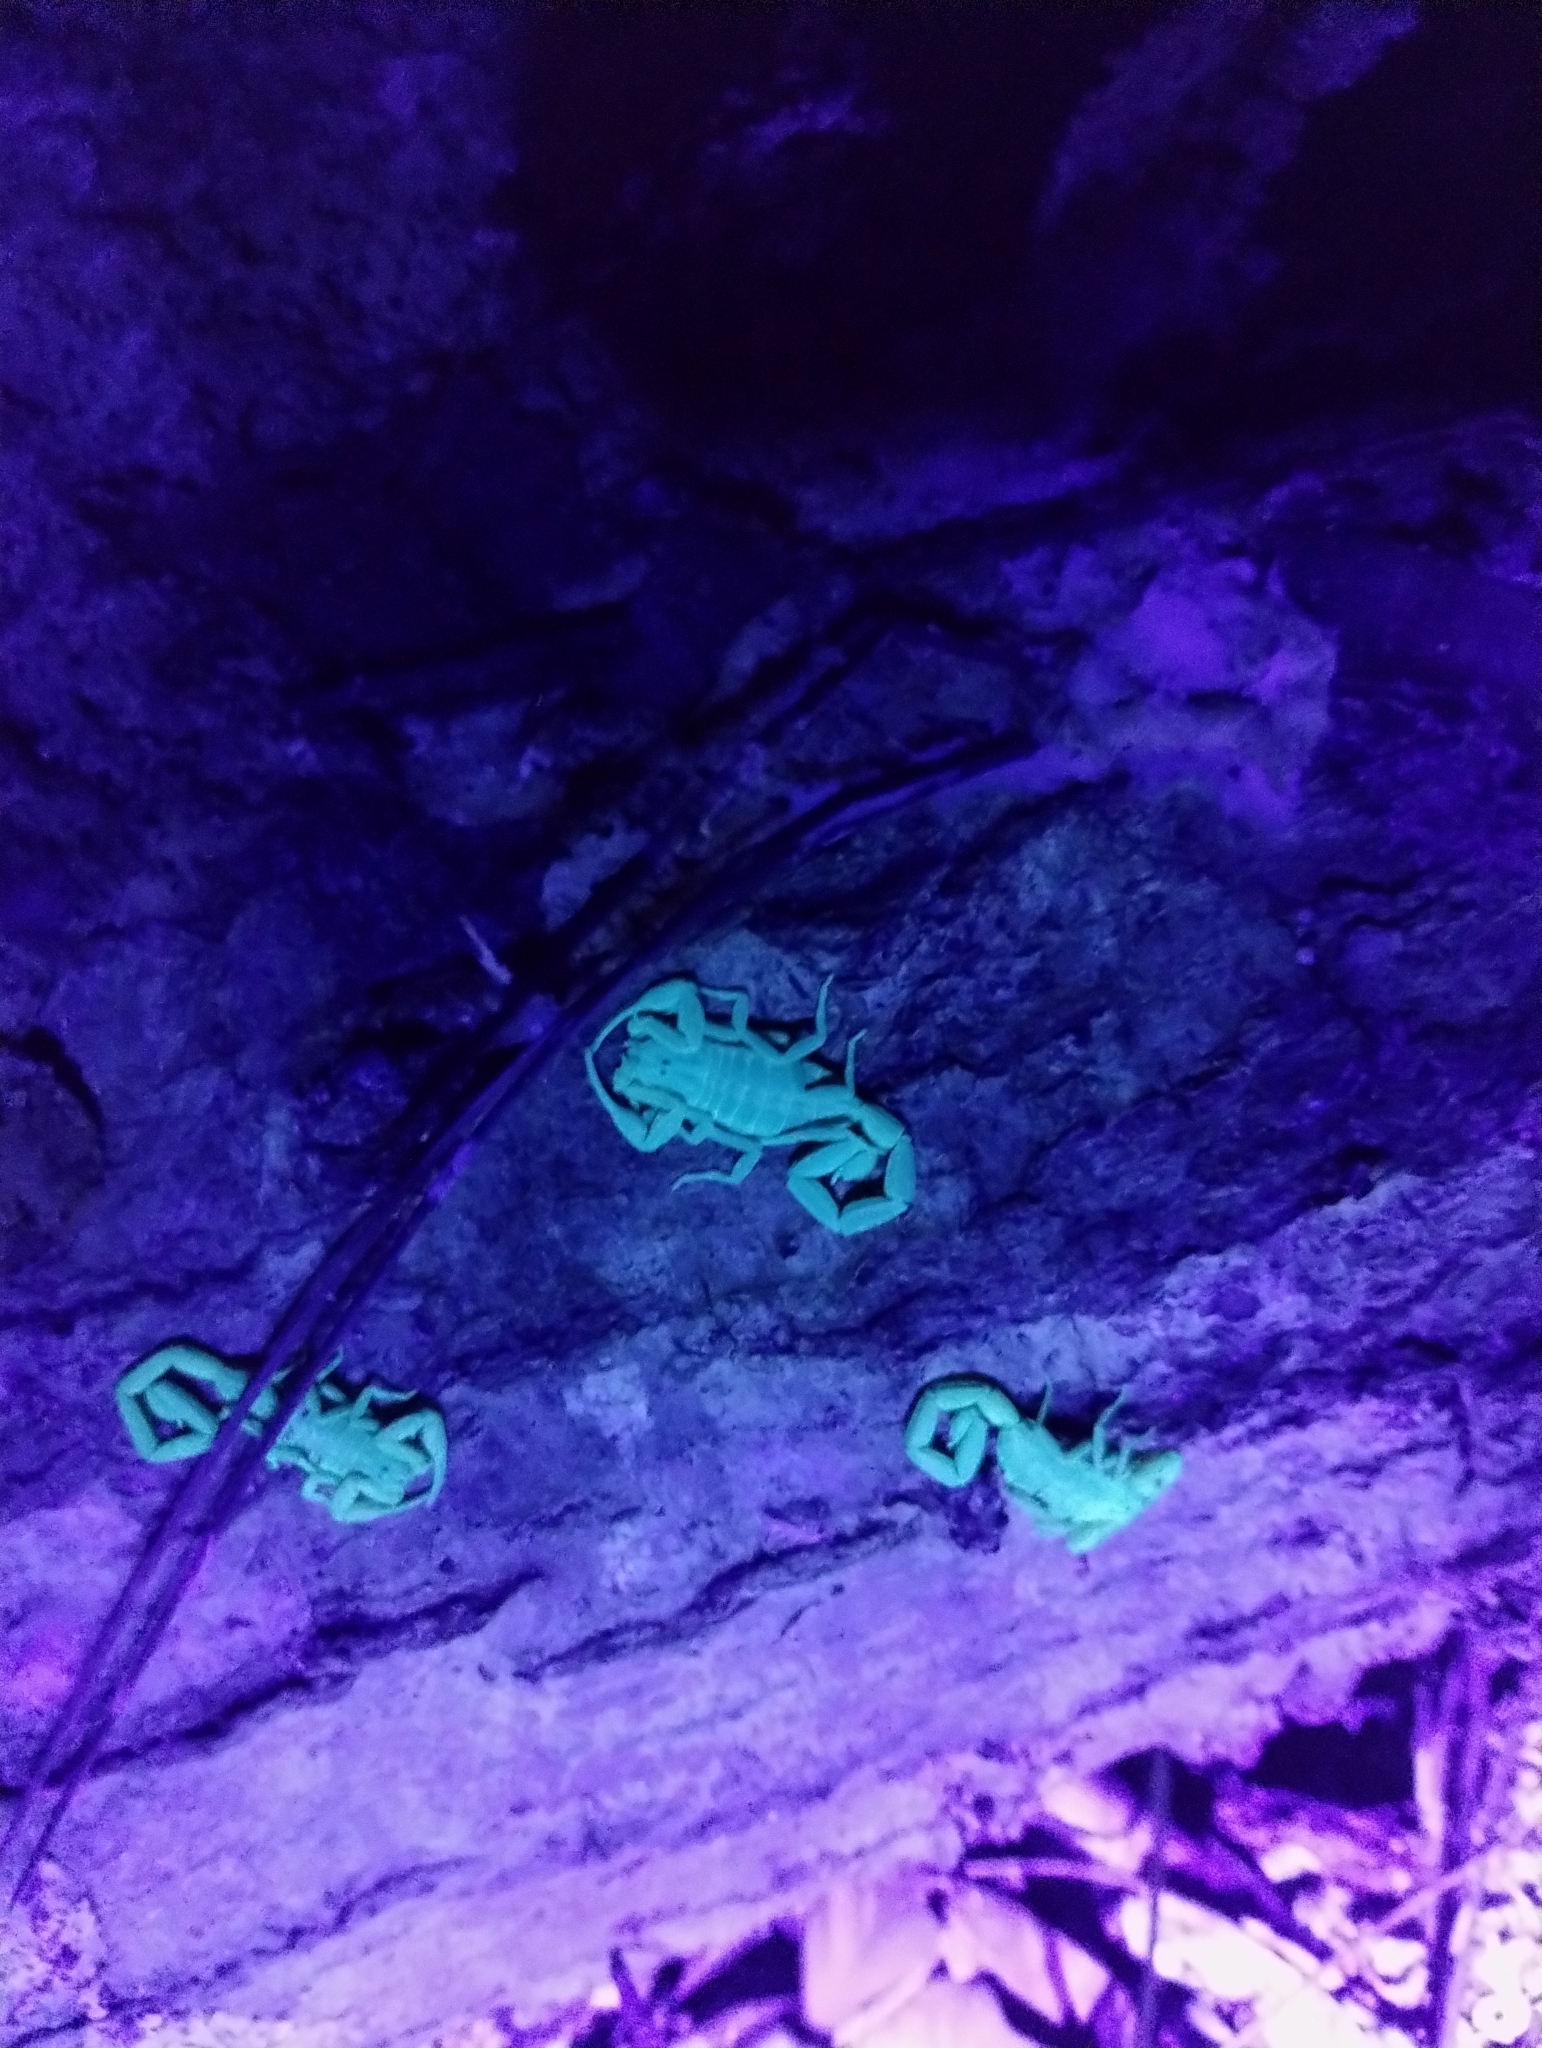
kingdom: Animalia
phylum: Arthropoda
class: Arachnida
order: Scorpiones
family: Buthidae
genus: Centruroides
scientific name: Centruroides hentzi
